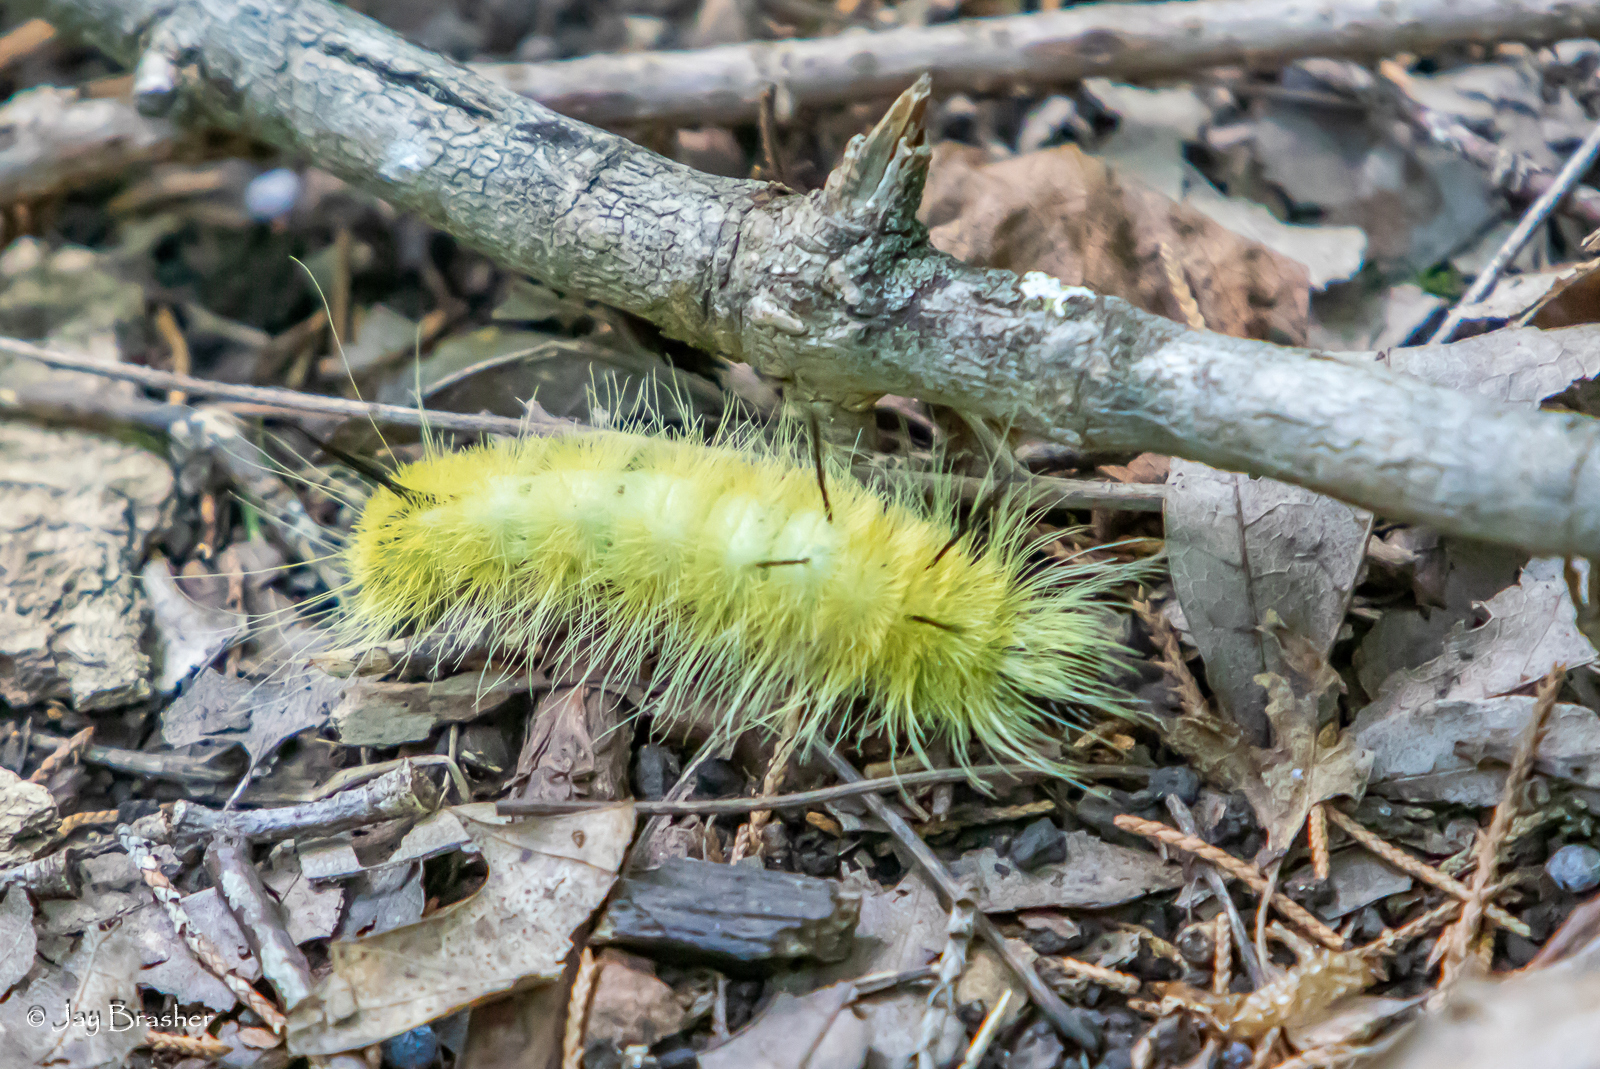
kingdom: Animalia
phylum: Arthropoda
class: Insecta
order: Lepidoptera
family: Noctuidae
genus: Acronicta
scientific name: Acronicta americana
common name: American dagger
